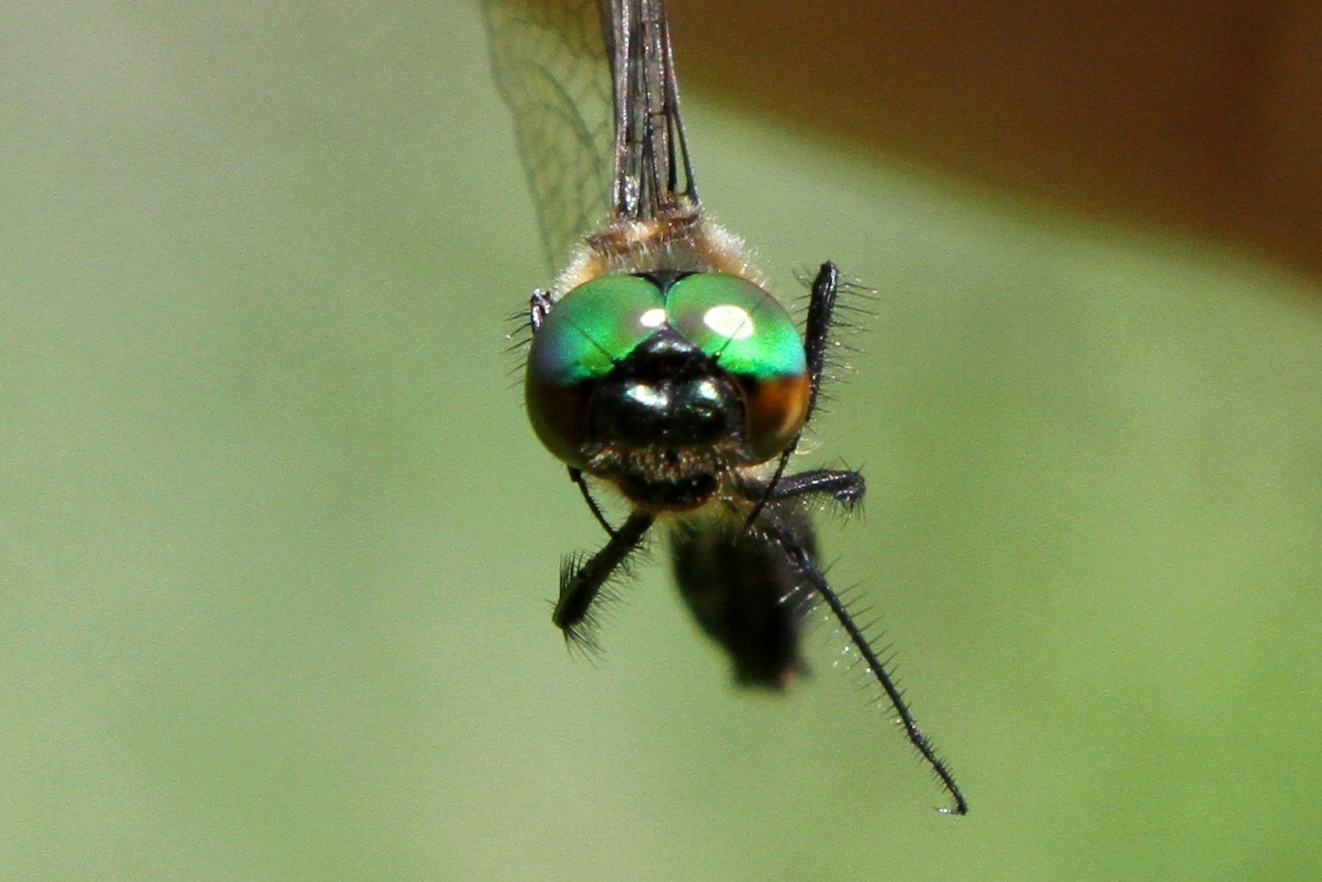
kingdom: Animalia
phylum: Arthropoda
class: Insecta
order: Odonata
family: Corduliidae
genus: Dorocordulia
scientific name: Dorocordulia libera
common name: Racket-tailed emerald
